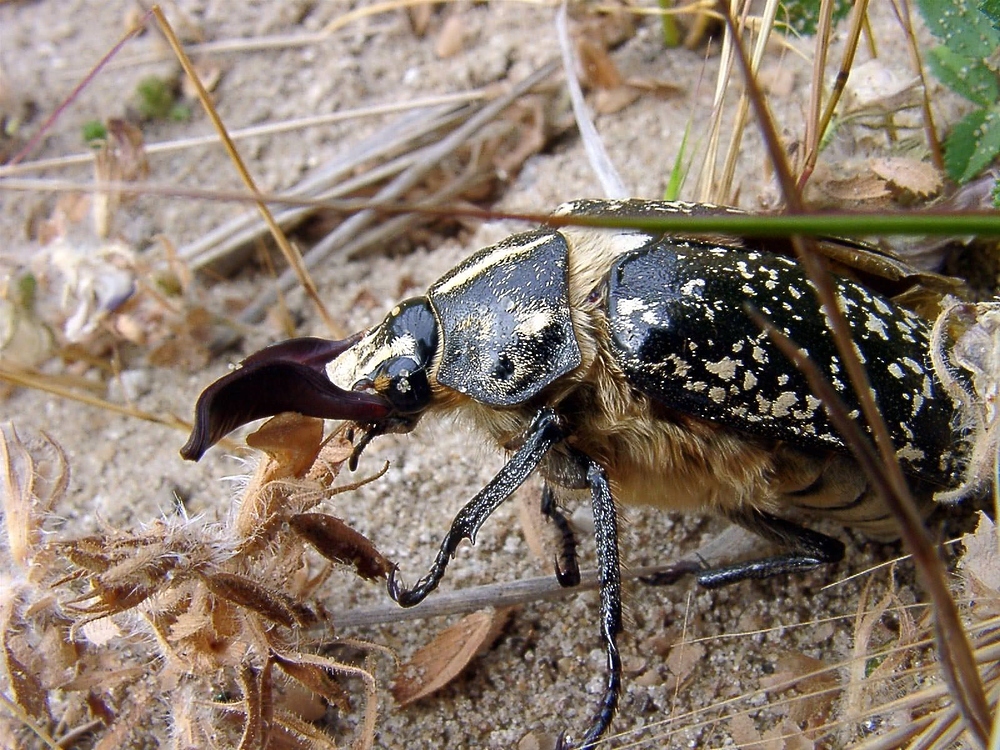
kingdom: Animalia
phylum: Arthropoda
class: Insecta
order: Coleoptera
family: Scarabaeidae
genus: Polyphylla
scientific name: Polyphylla fullo
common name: Pine chafer
